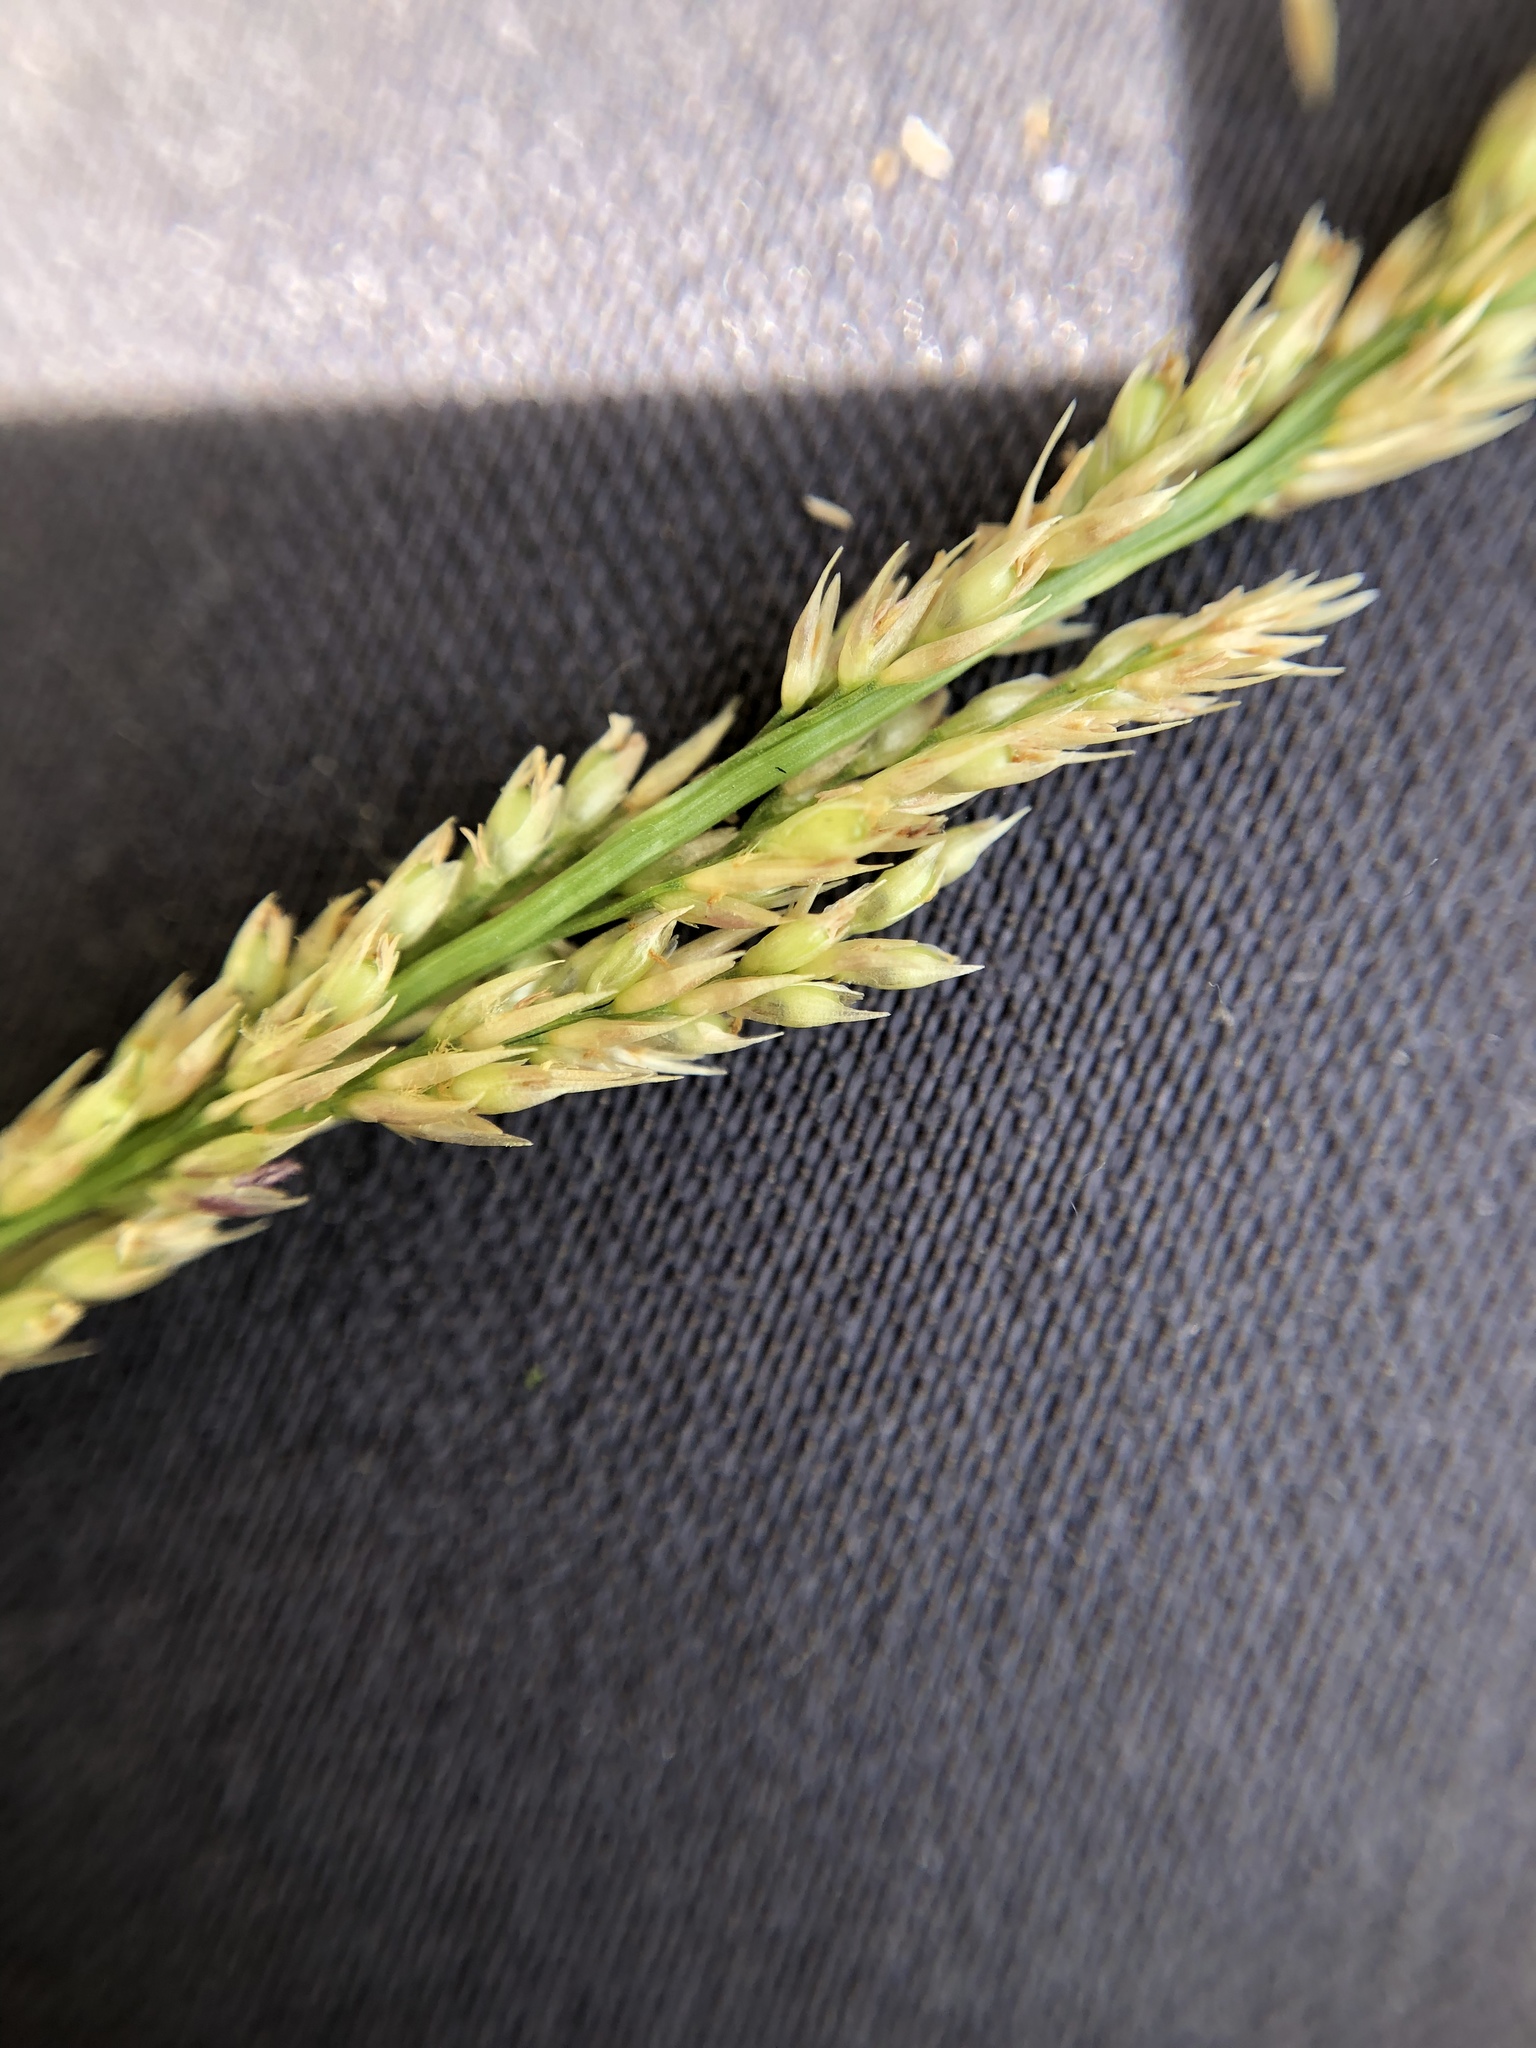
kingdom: Plantae
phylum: Tracheophyta
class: Liliopsida
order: Poales
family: Poaceae
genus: Sporobolus
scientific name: Sporobolus indicus
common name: Smut grass
